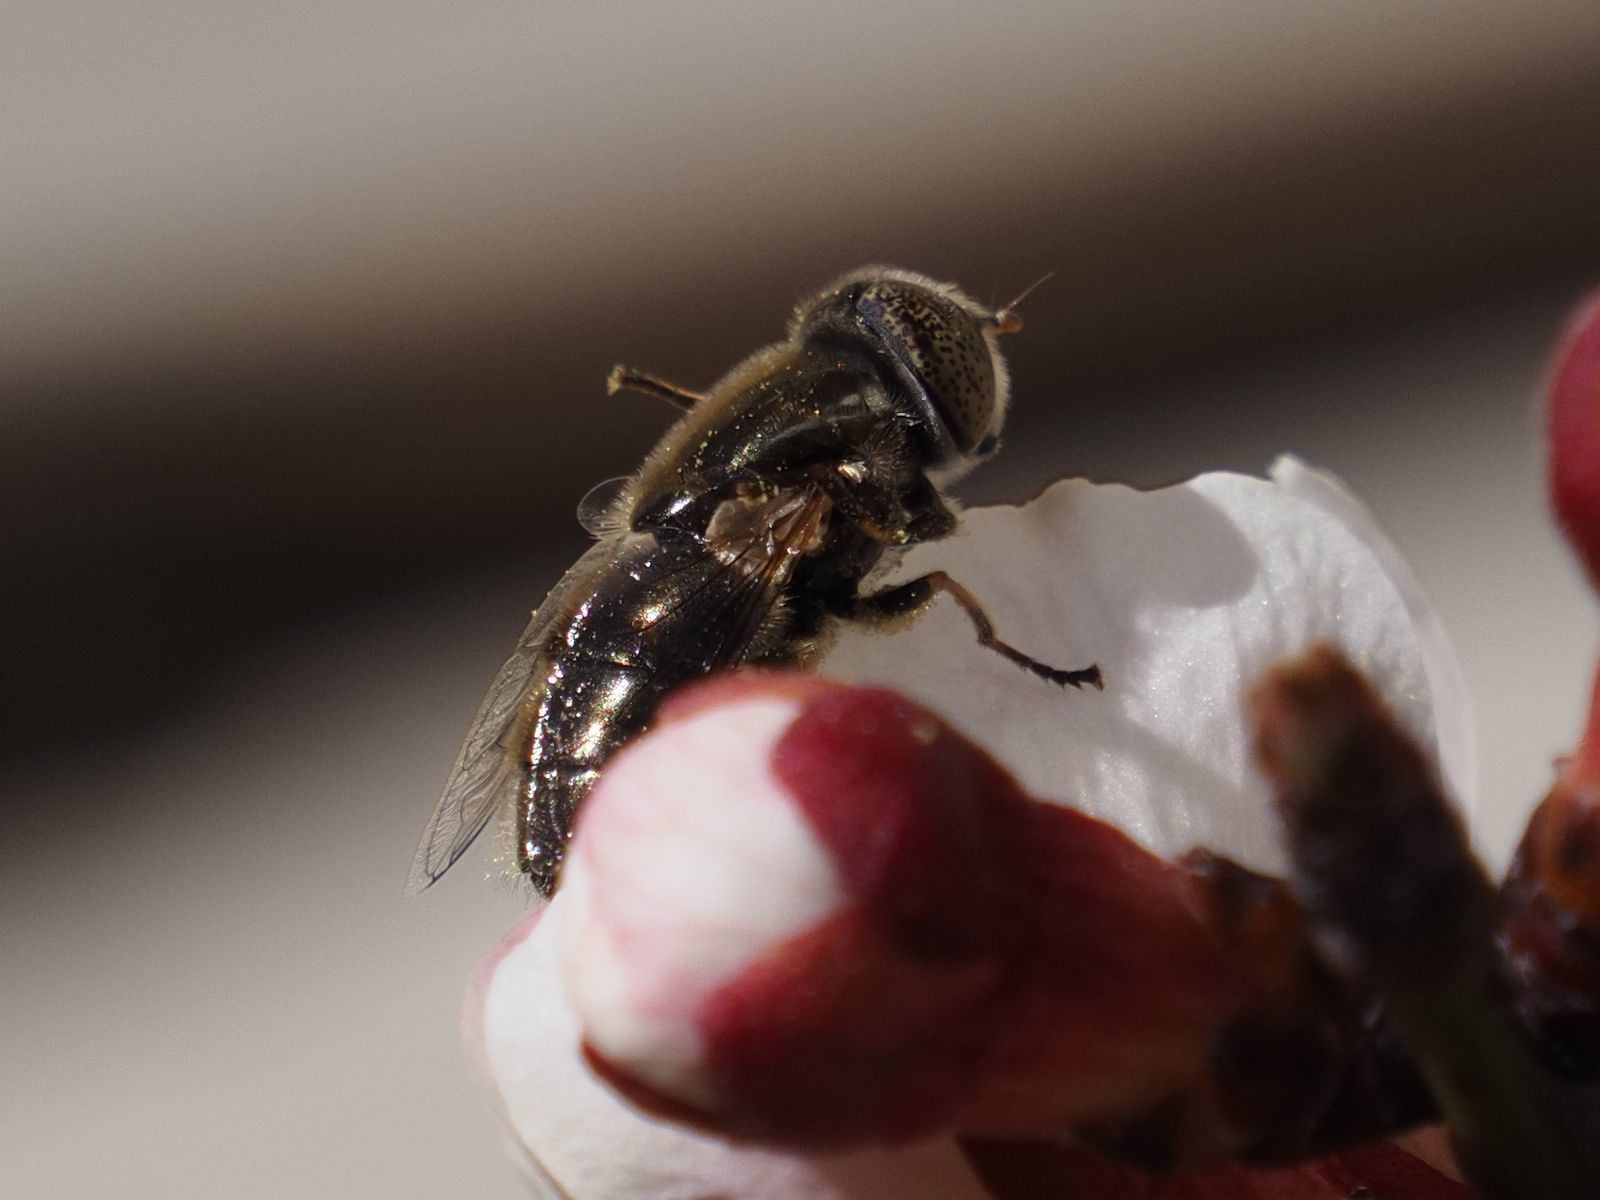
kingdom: Animalia
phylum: Arthropoda
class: Insecta
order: Diptera
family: Syrphidae
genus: Eristalinus
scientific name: Eristalinus aeneus
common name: Syrphid fly
